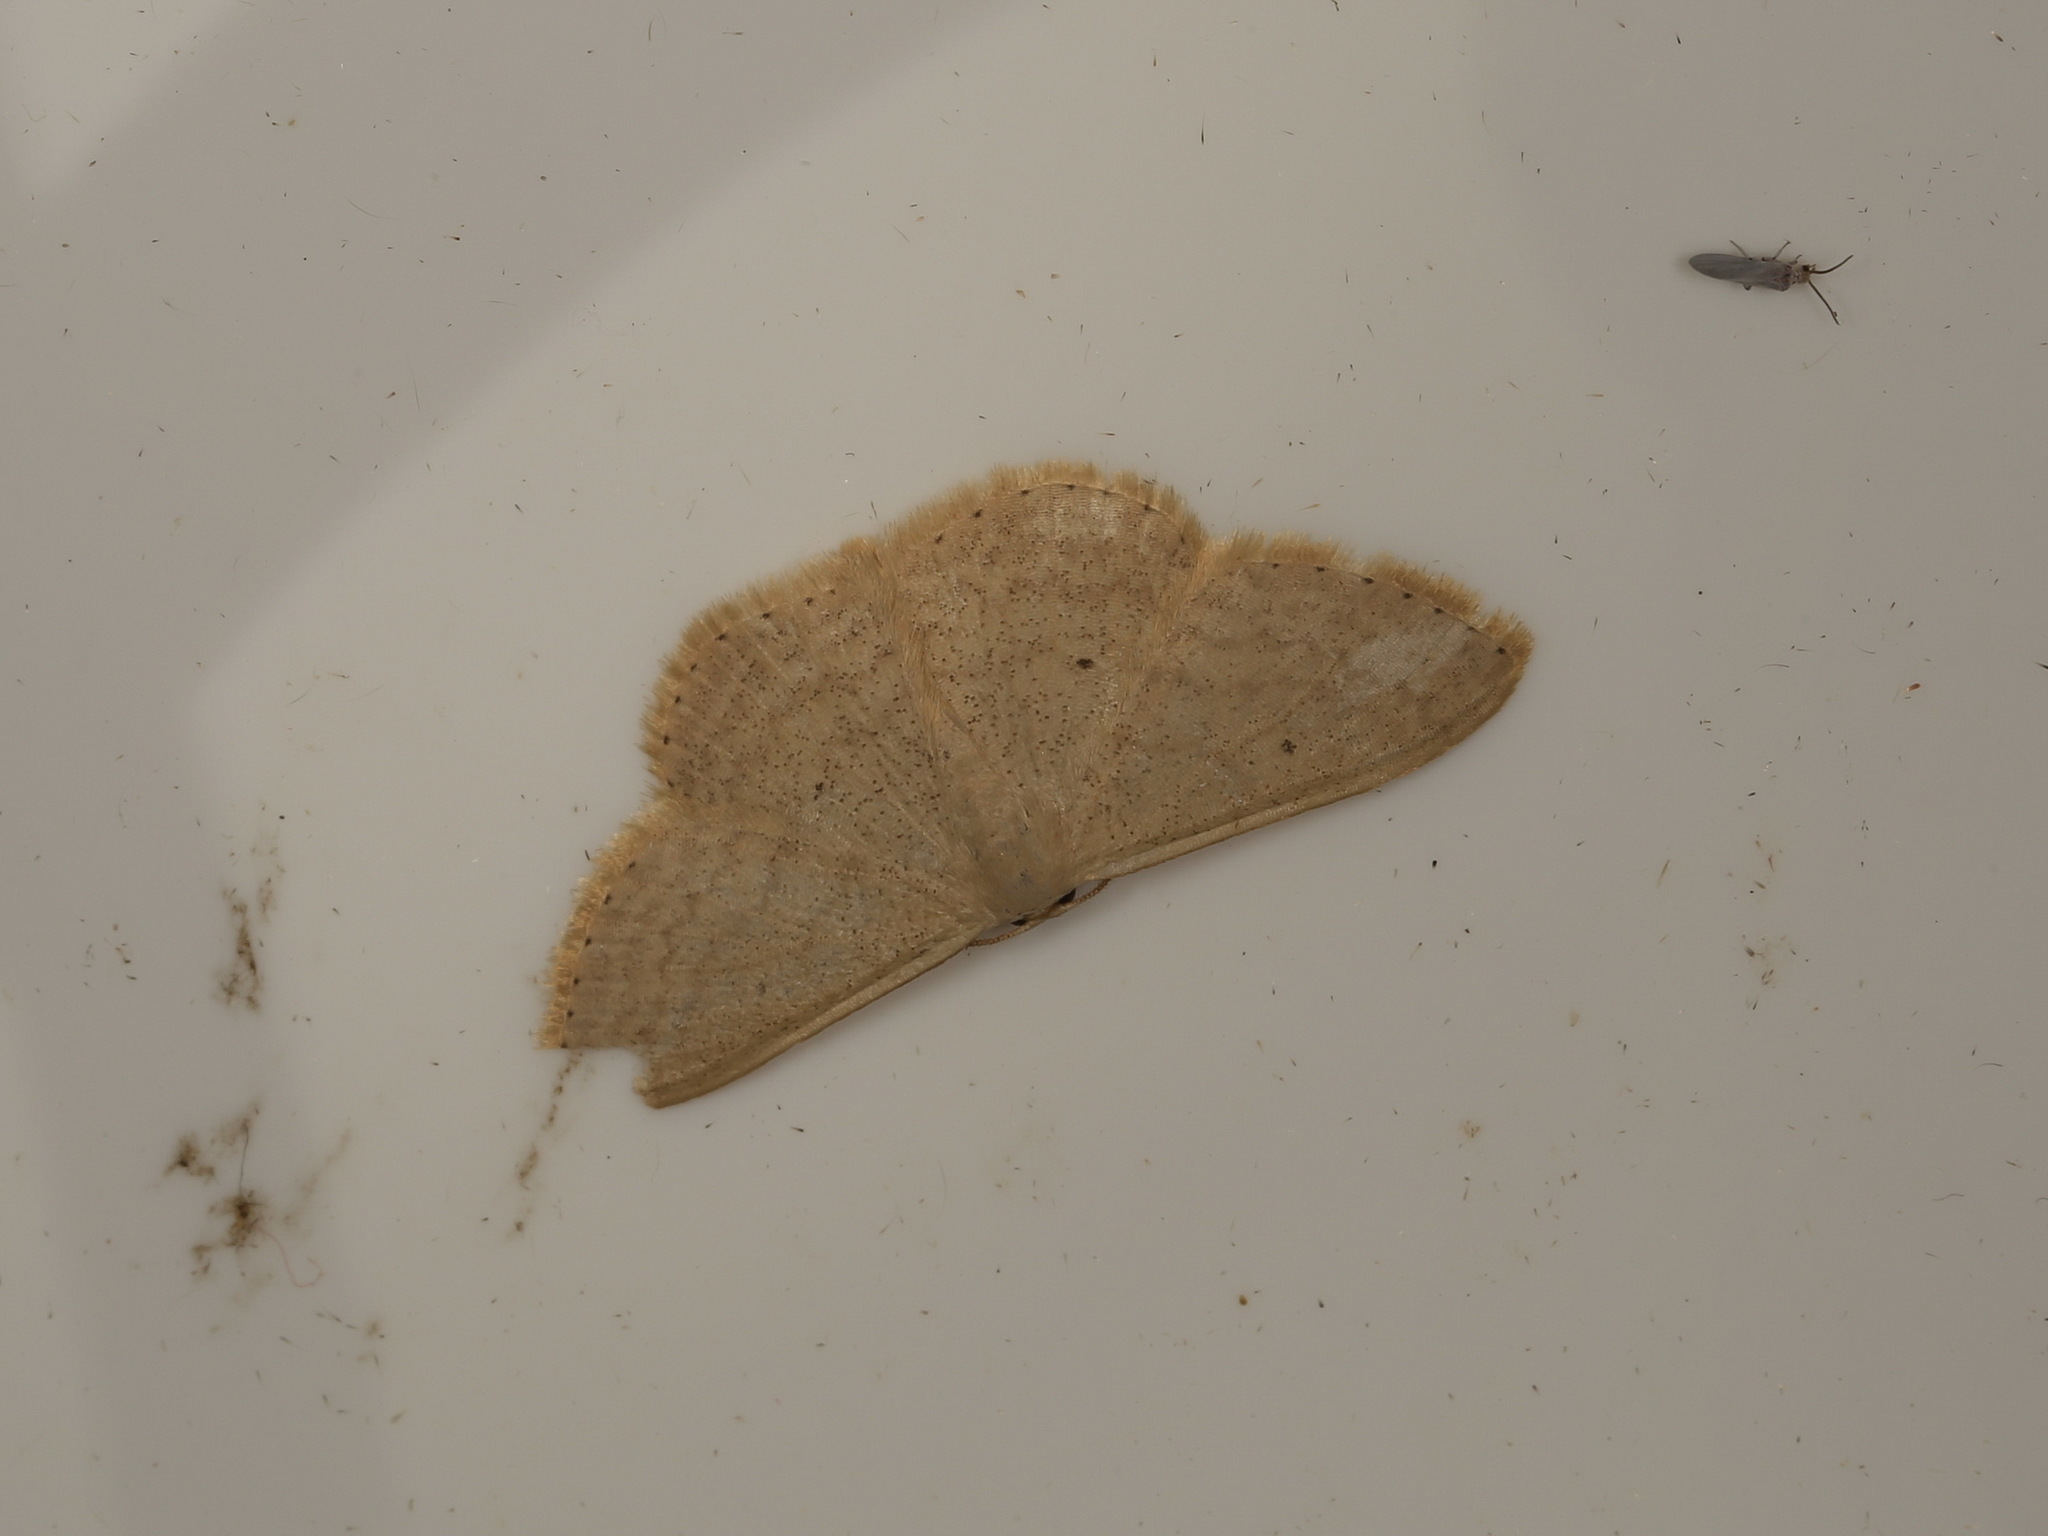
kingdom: Animalia
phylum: Arthropoda
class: Insecta
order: Lepidoptera
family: Geometridae
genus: Scopula
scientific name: Scopula optivata
